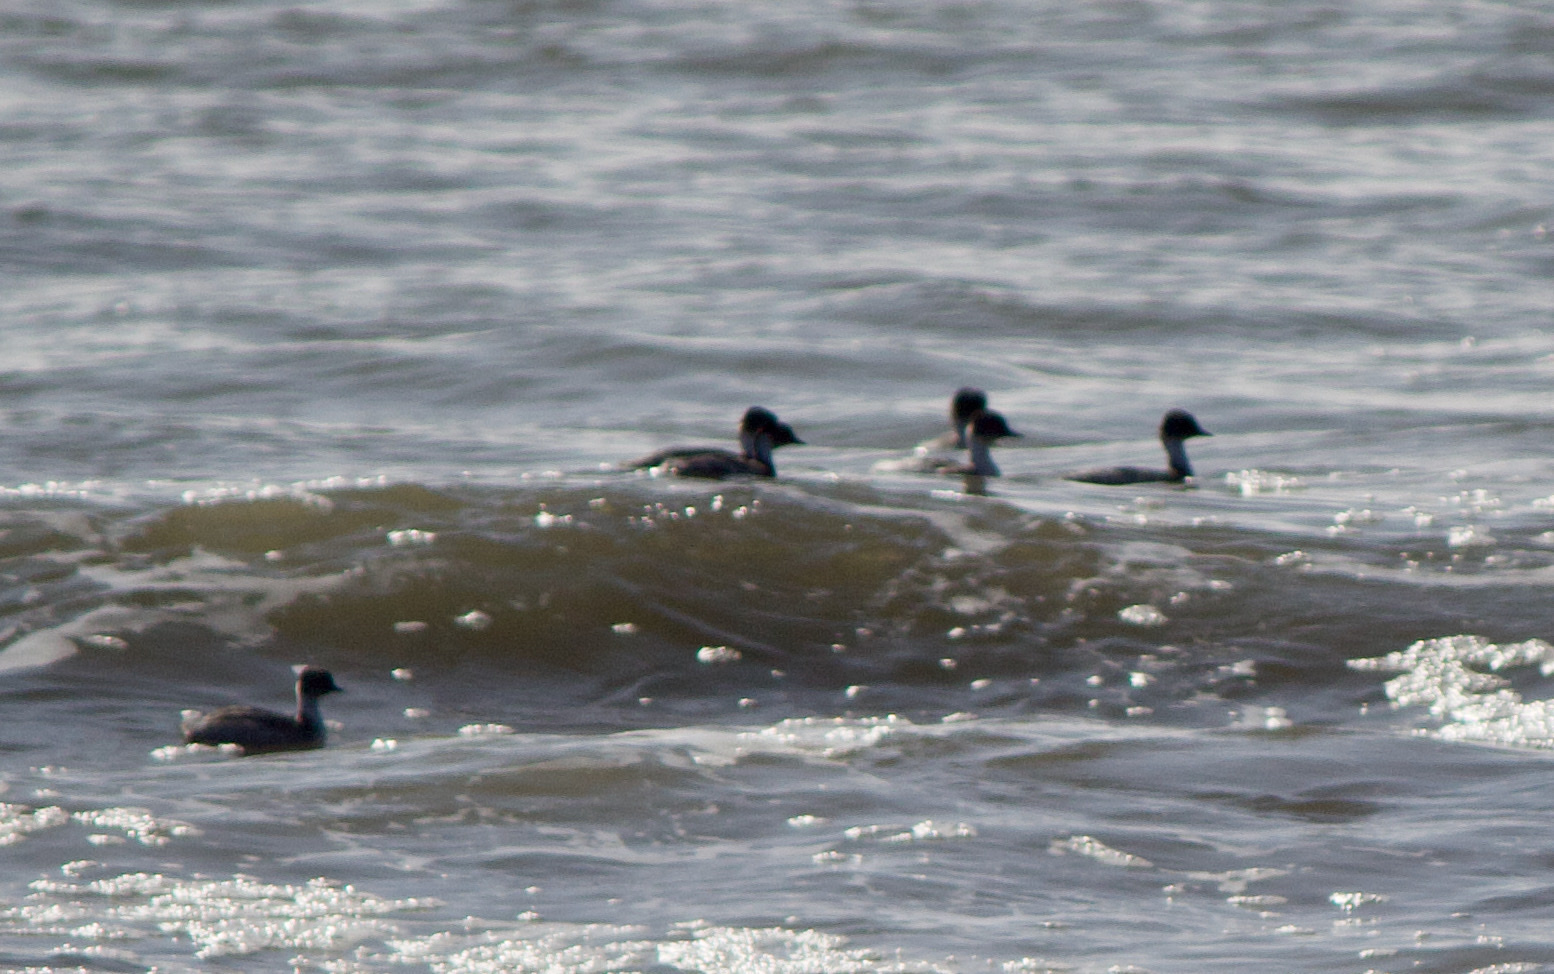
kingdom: Animalia
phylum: Chordata
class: Aves
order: Podicipediformes
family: Podicipedidae
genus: Podiceps
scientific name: Podiceps occipitalis
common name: Silvery grebe
